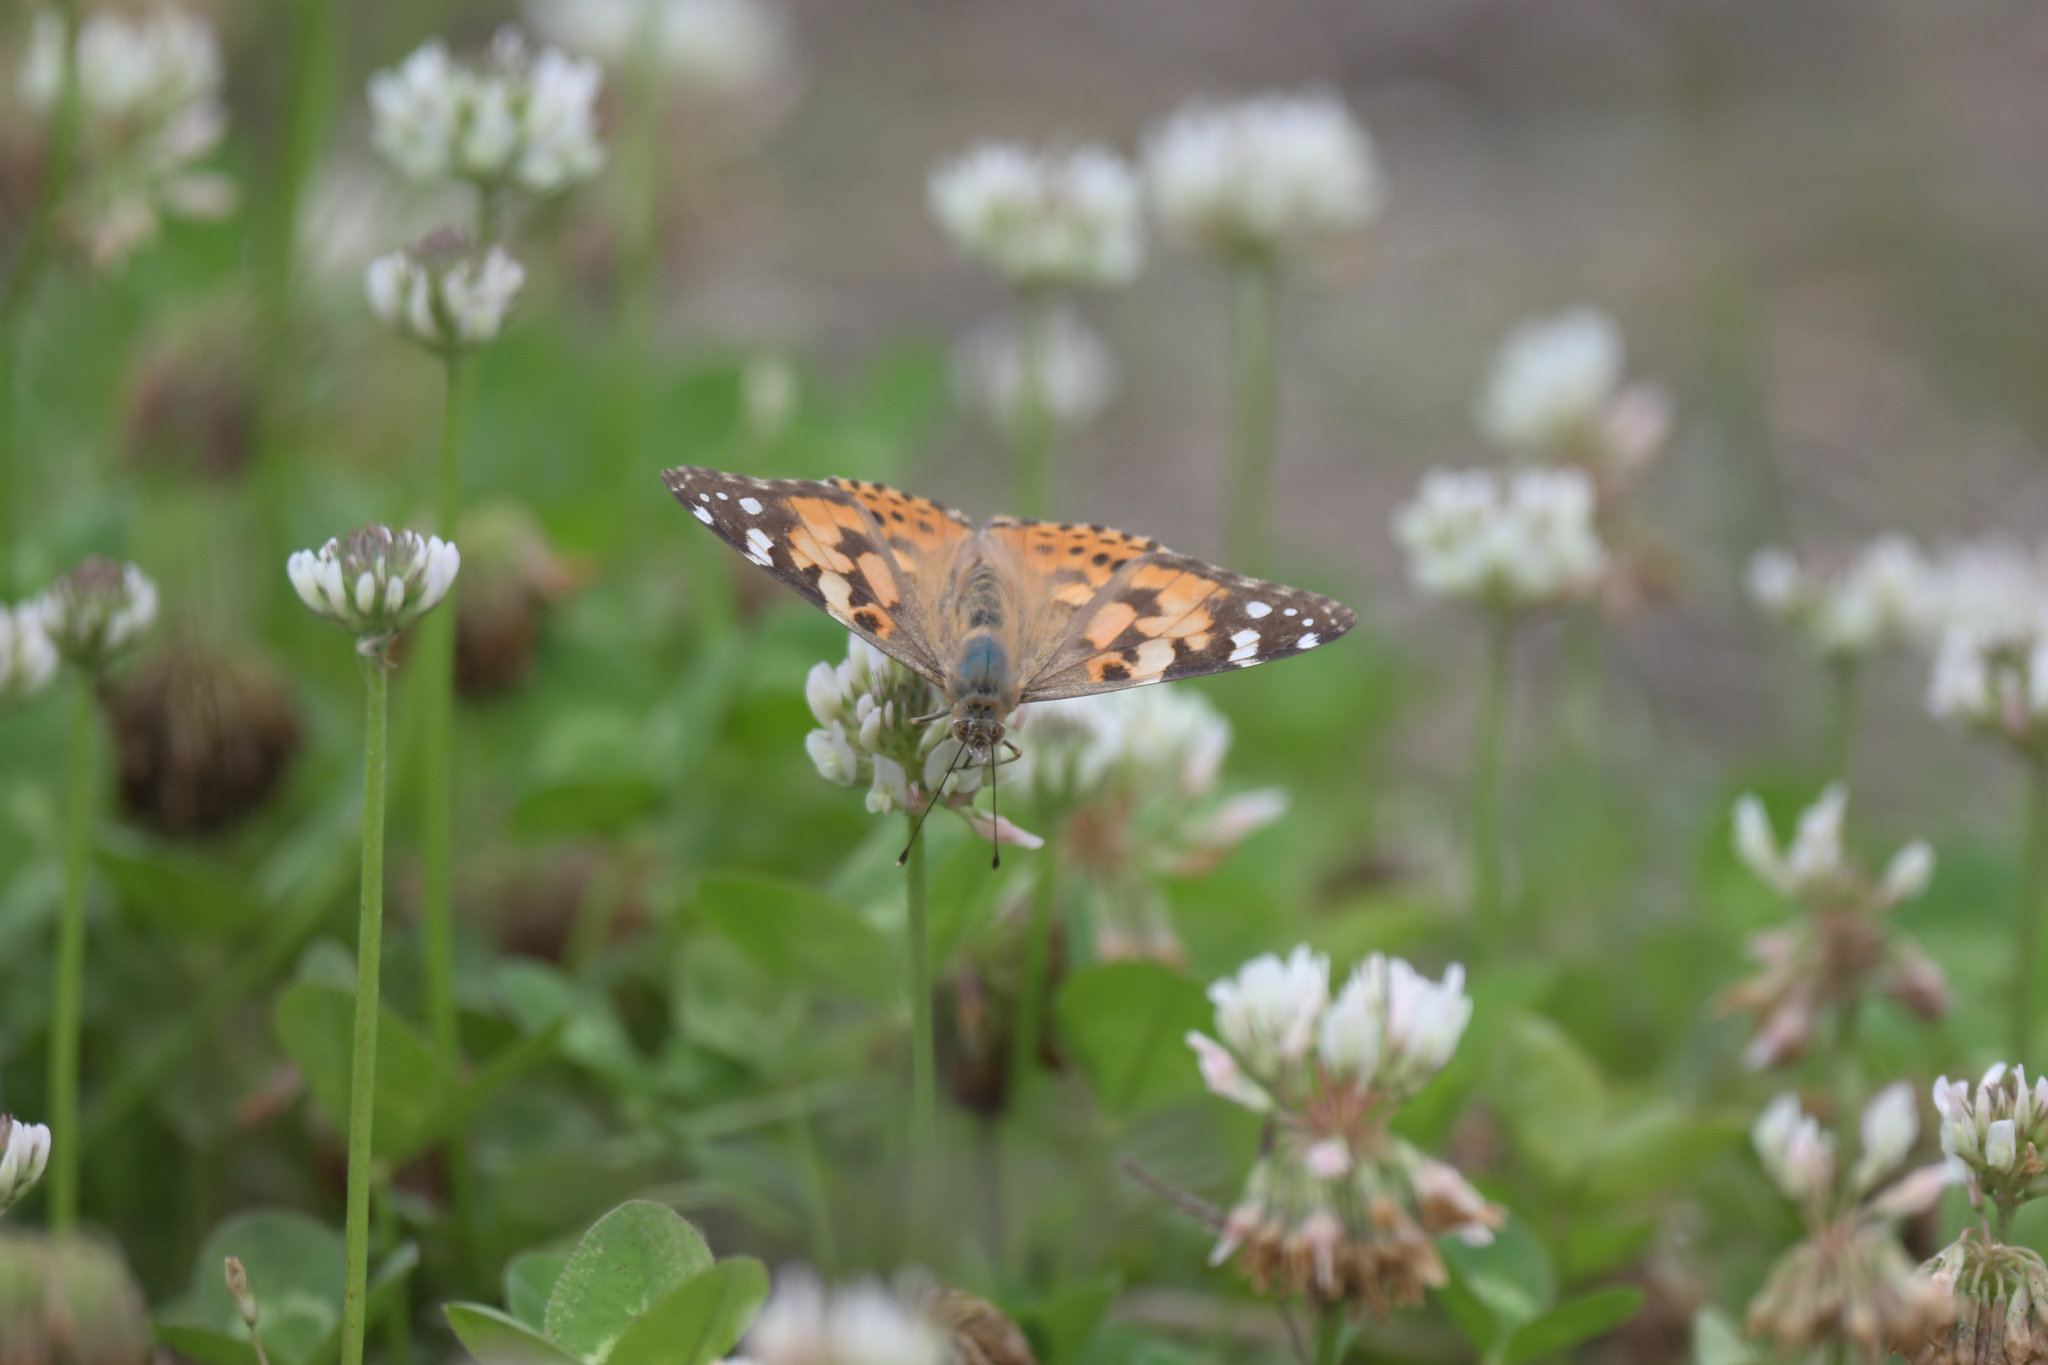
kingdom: Animalia
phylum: Arthropoda
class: Insecta
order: Lepidoptera
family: Nymphalidae
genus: Vanessa
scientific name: Vanessa cardui
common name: Painted lady
